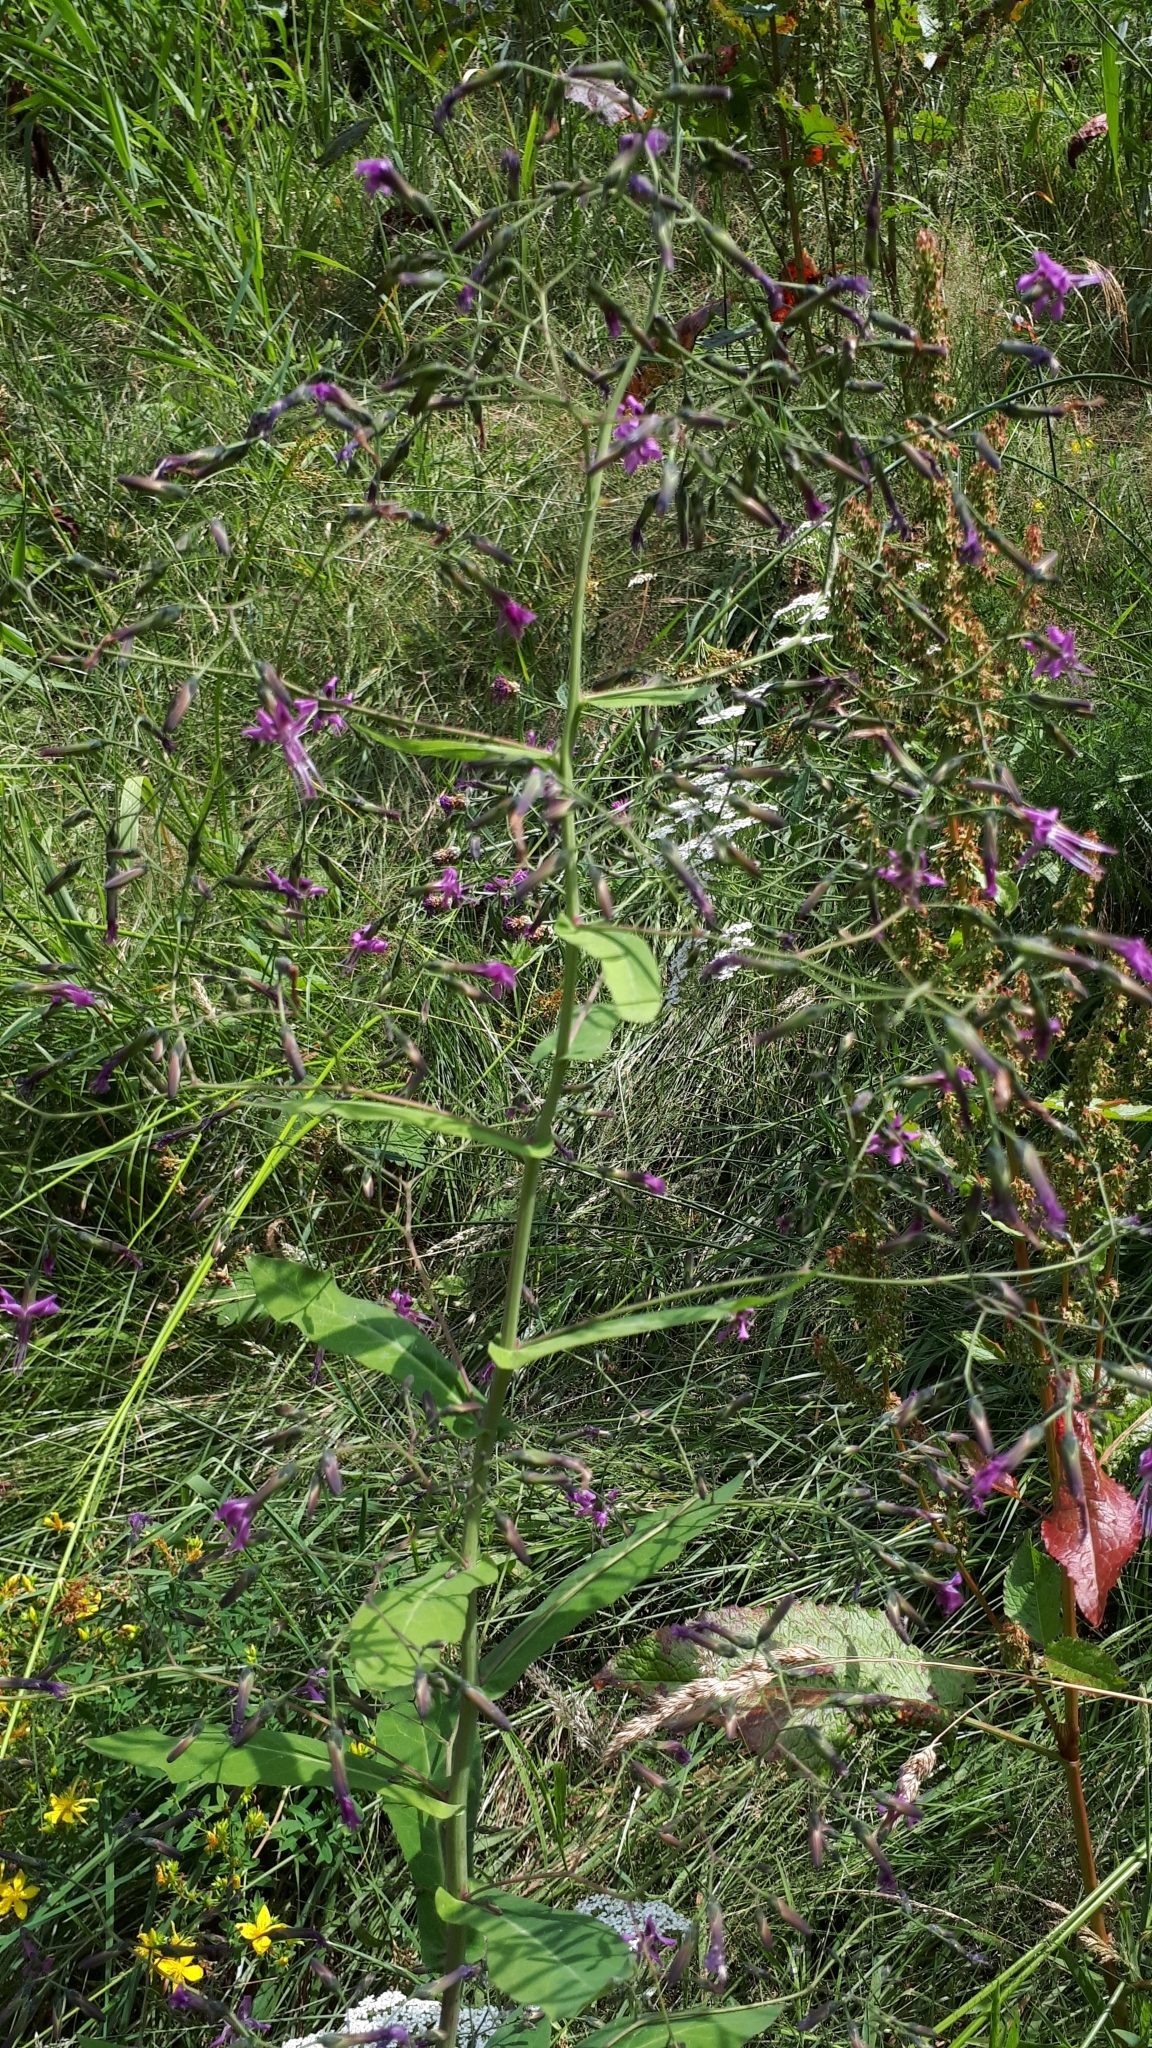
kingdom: Plantae
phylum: Tracheophyta
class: Magnoliopsida
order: Asterales
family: Asteraceae
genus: Prenanthes
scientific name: Prenanthes purpurea
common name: Purple lettuce
